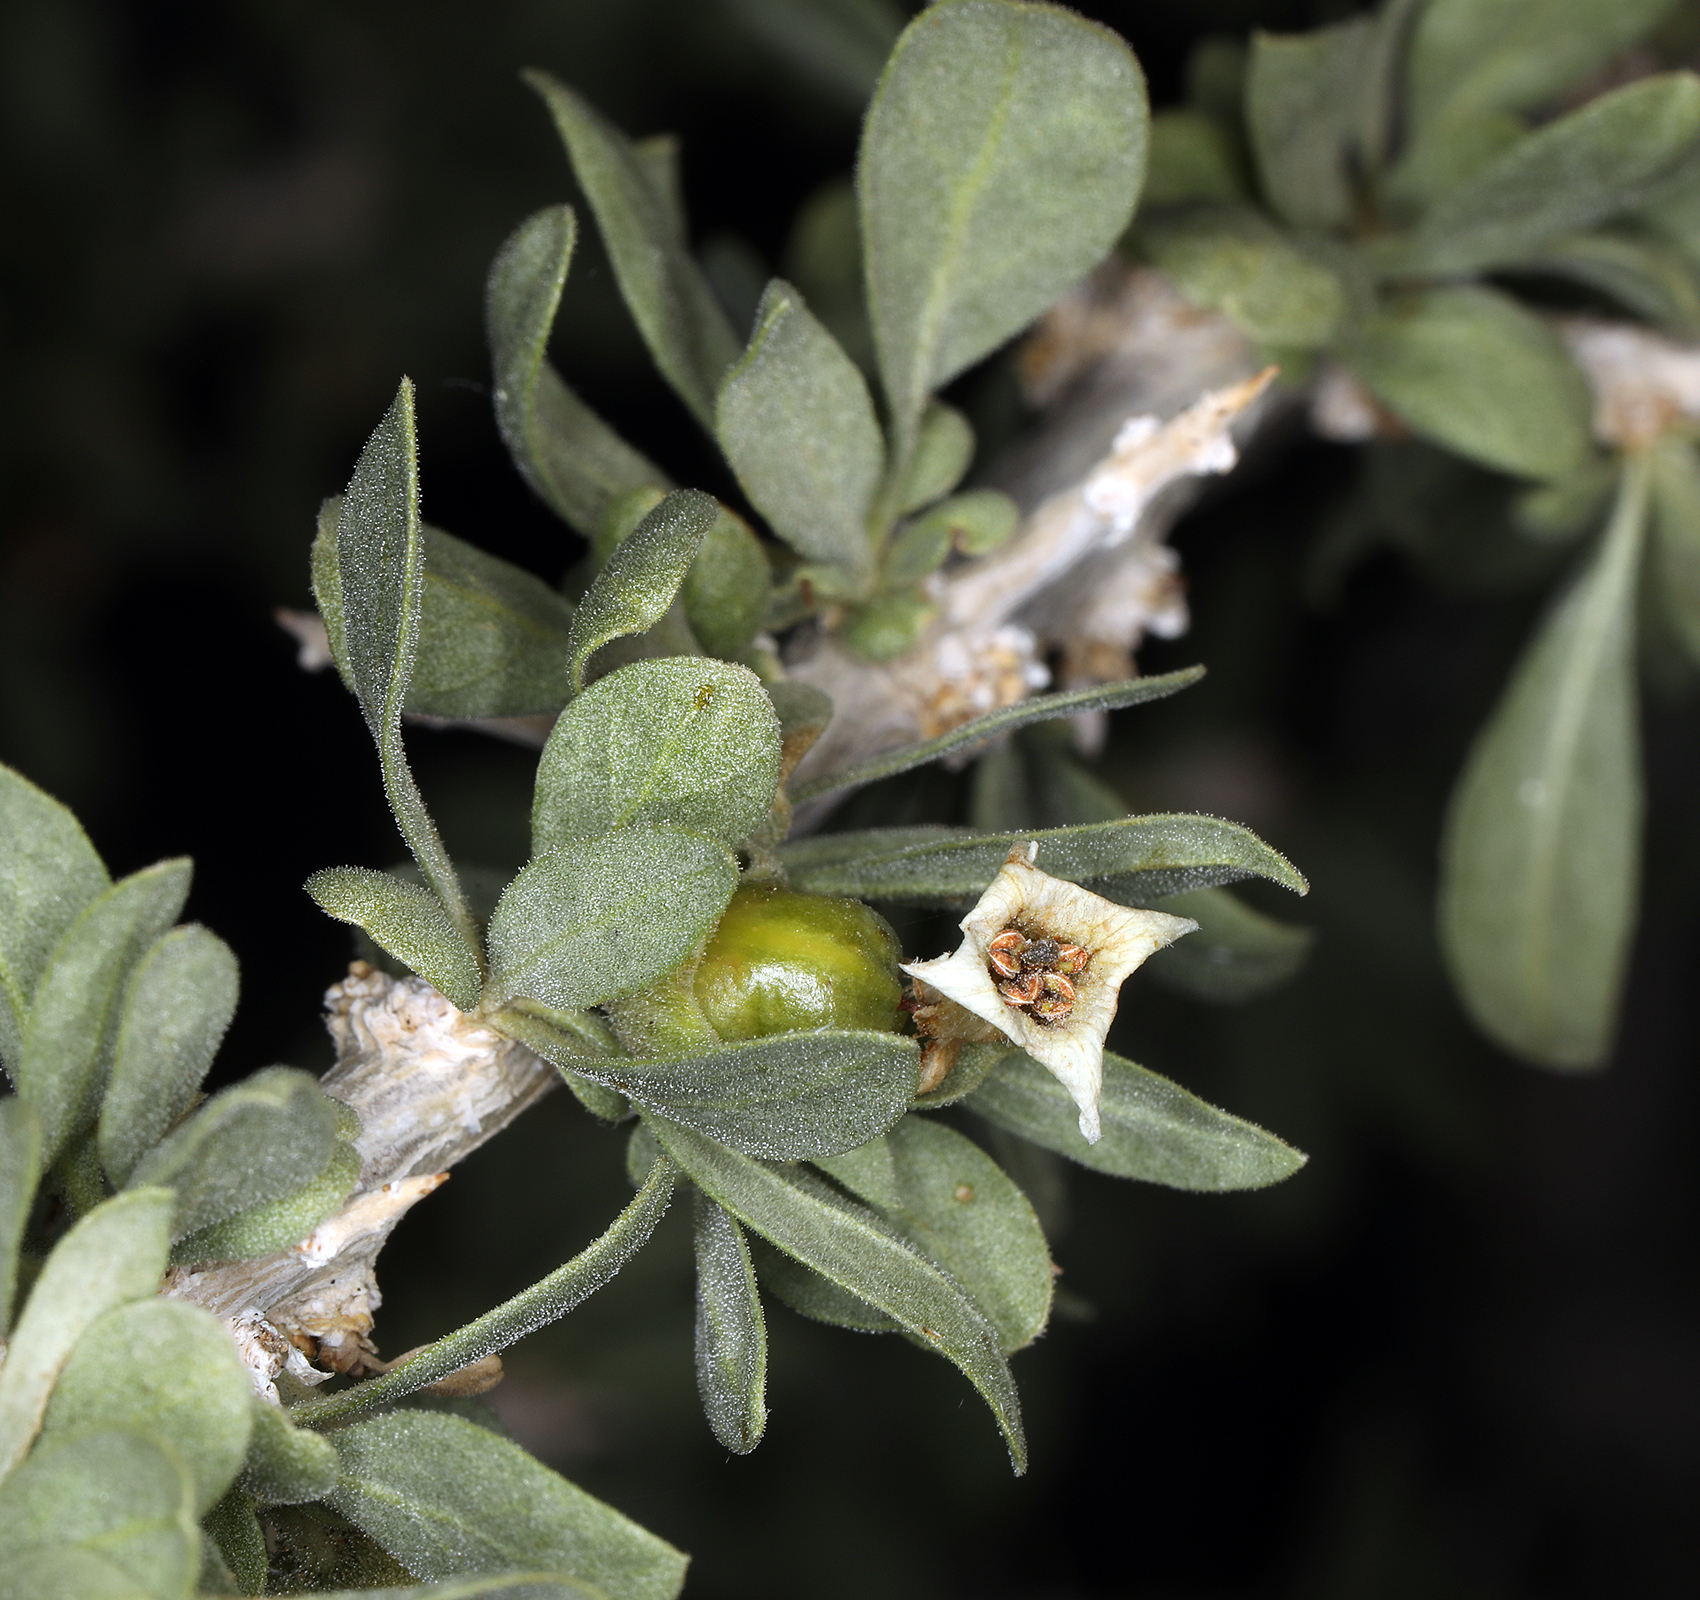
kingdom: Plantae
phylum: Tracheophyta
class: Magnoliopsida
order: Solanales
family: Solanaceae
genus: Lycium
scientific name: Lycium cooperi
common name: Peachthorn
